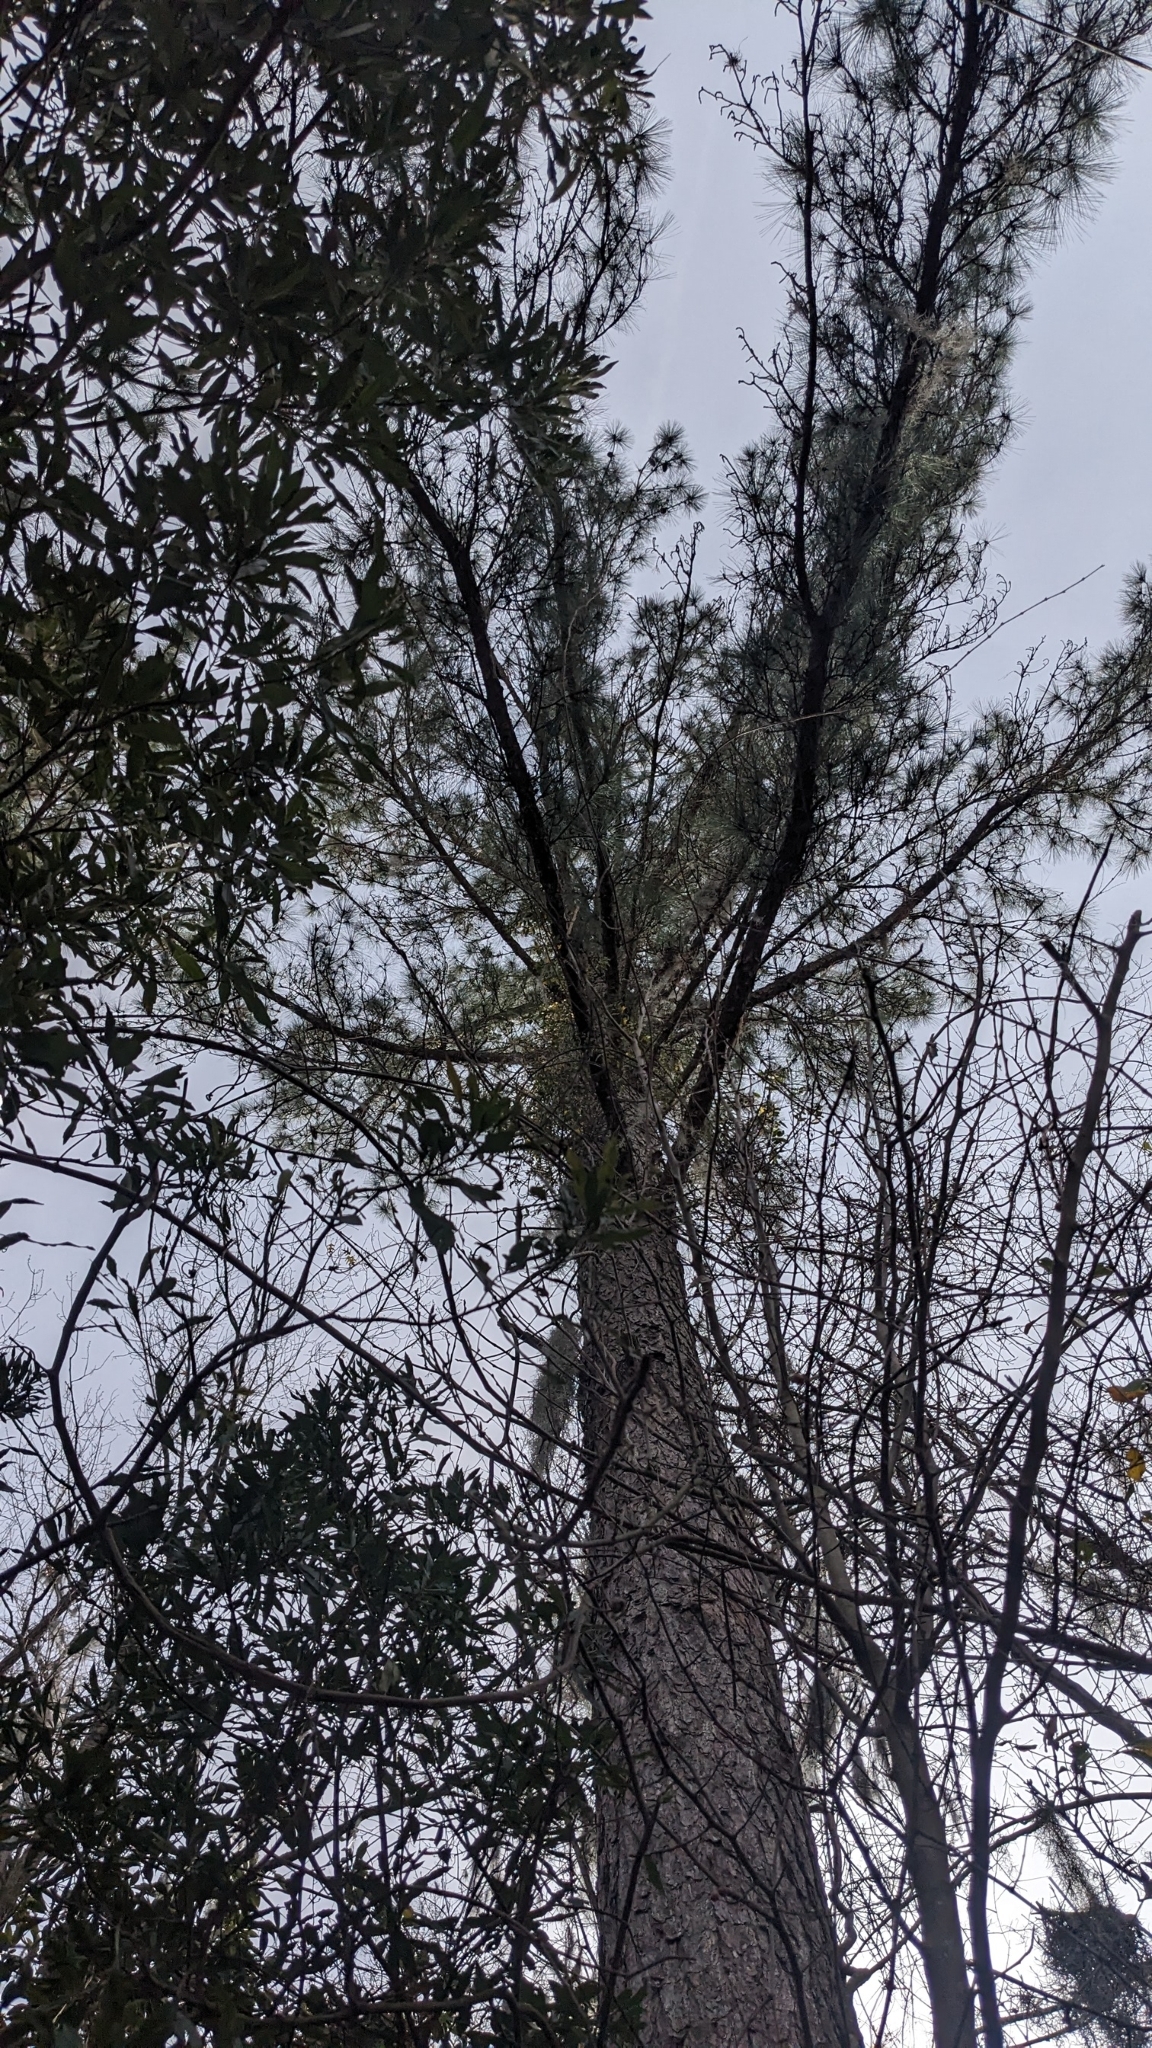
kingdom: Plantae
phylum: Tracheophyta
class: Magnoliopsida
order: Gentianales
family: Gelsemiaceae
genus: Gelsemium
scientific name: Gelsemium sempervirens
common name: Carolina-jasmine
